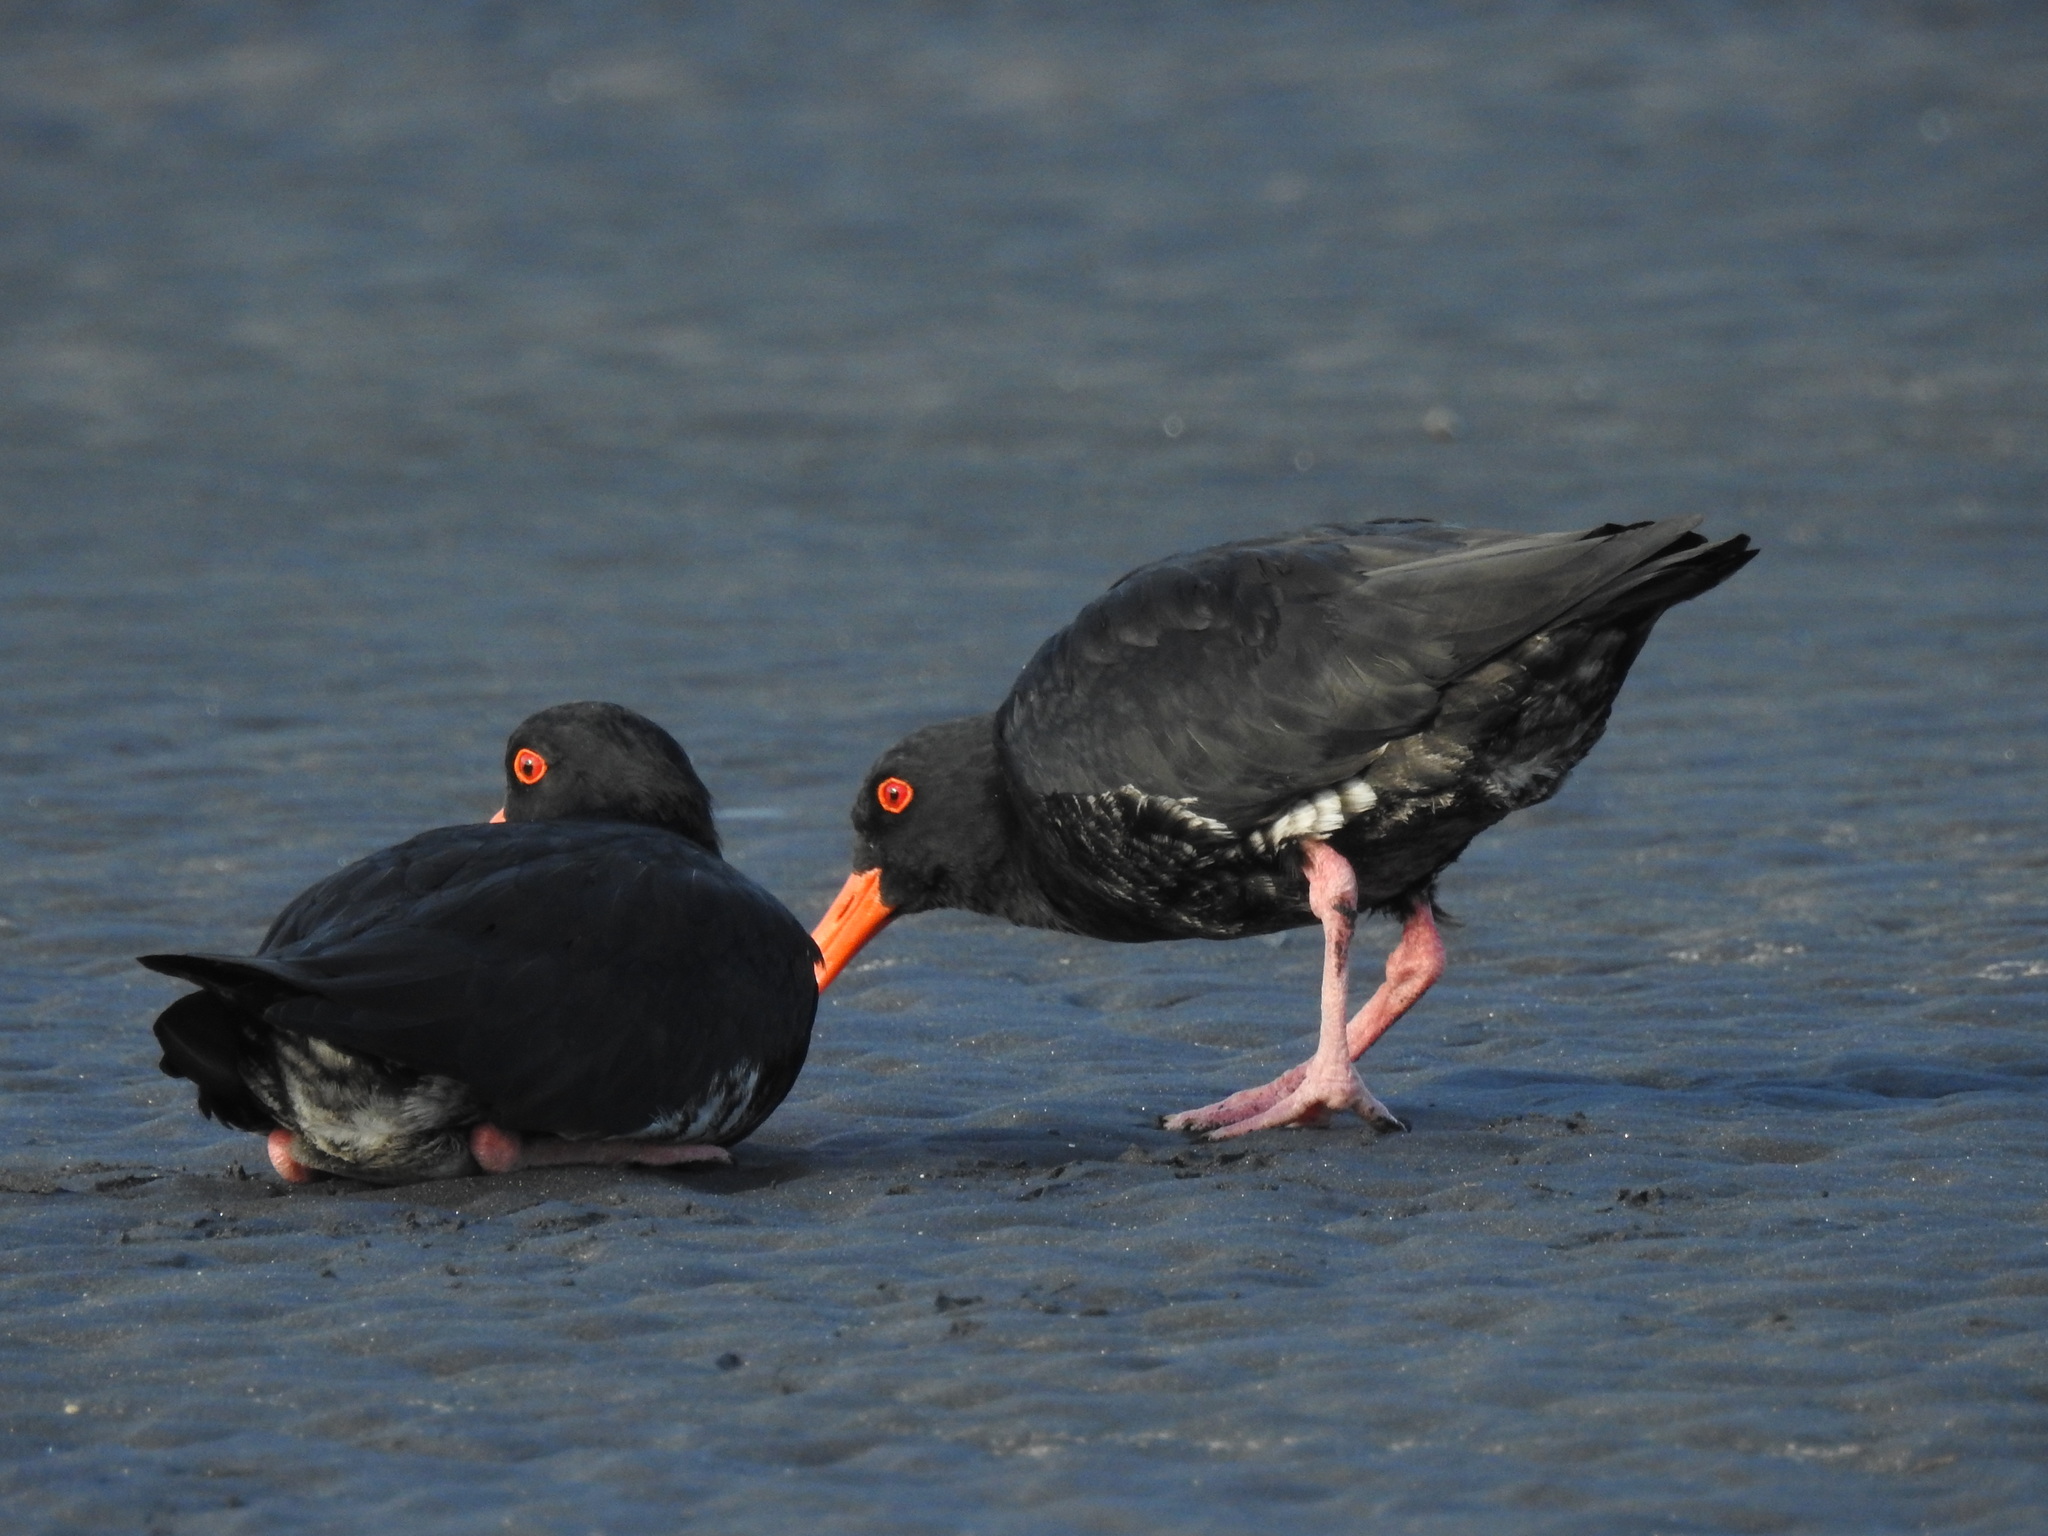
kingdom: Animalia
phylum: Chordata
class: Aves
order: Charadriiformes
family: Haematopodidae
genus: Haematopus
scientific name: Haematopus unicolor
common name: Variable oystercatcher
